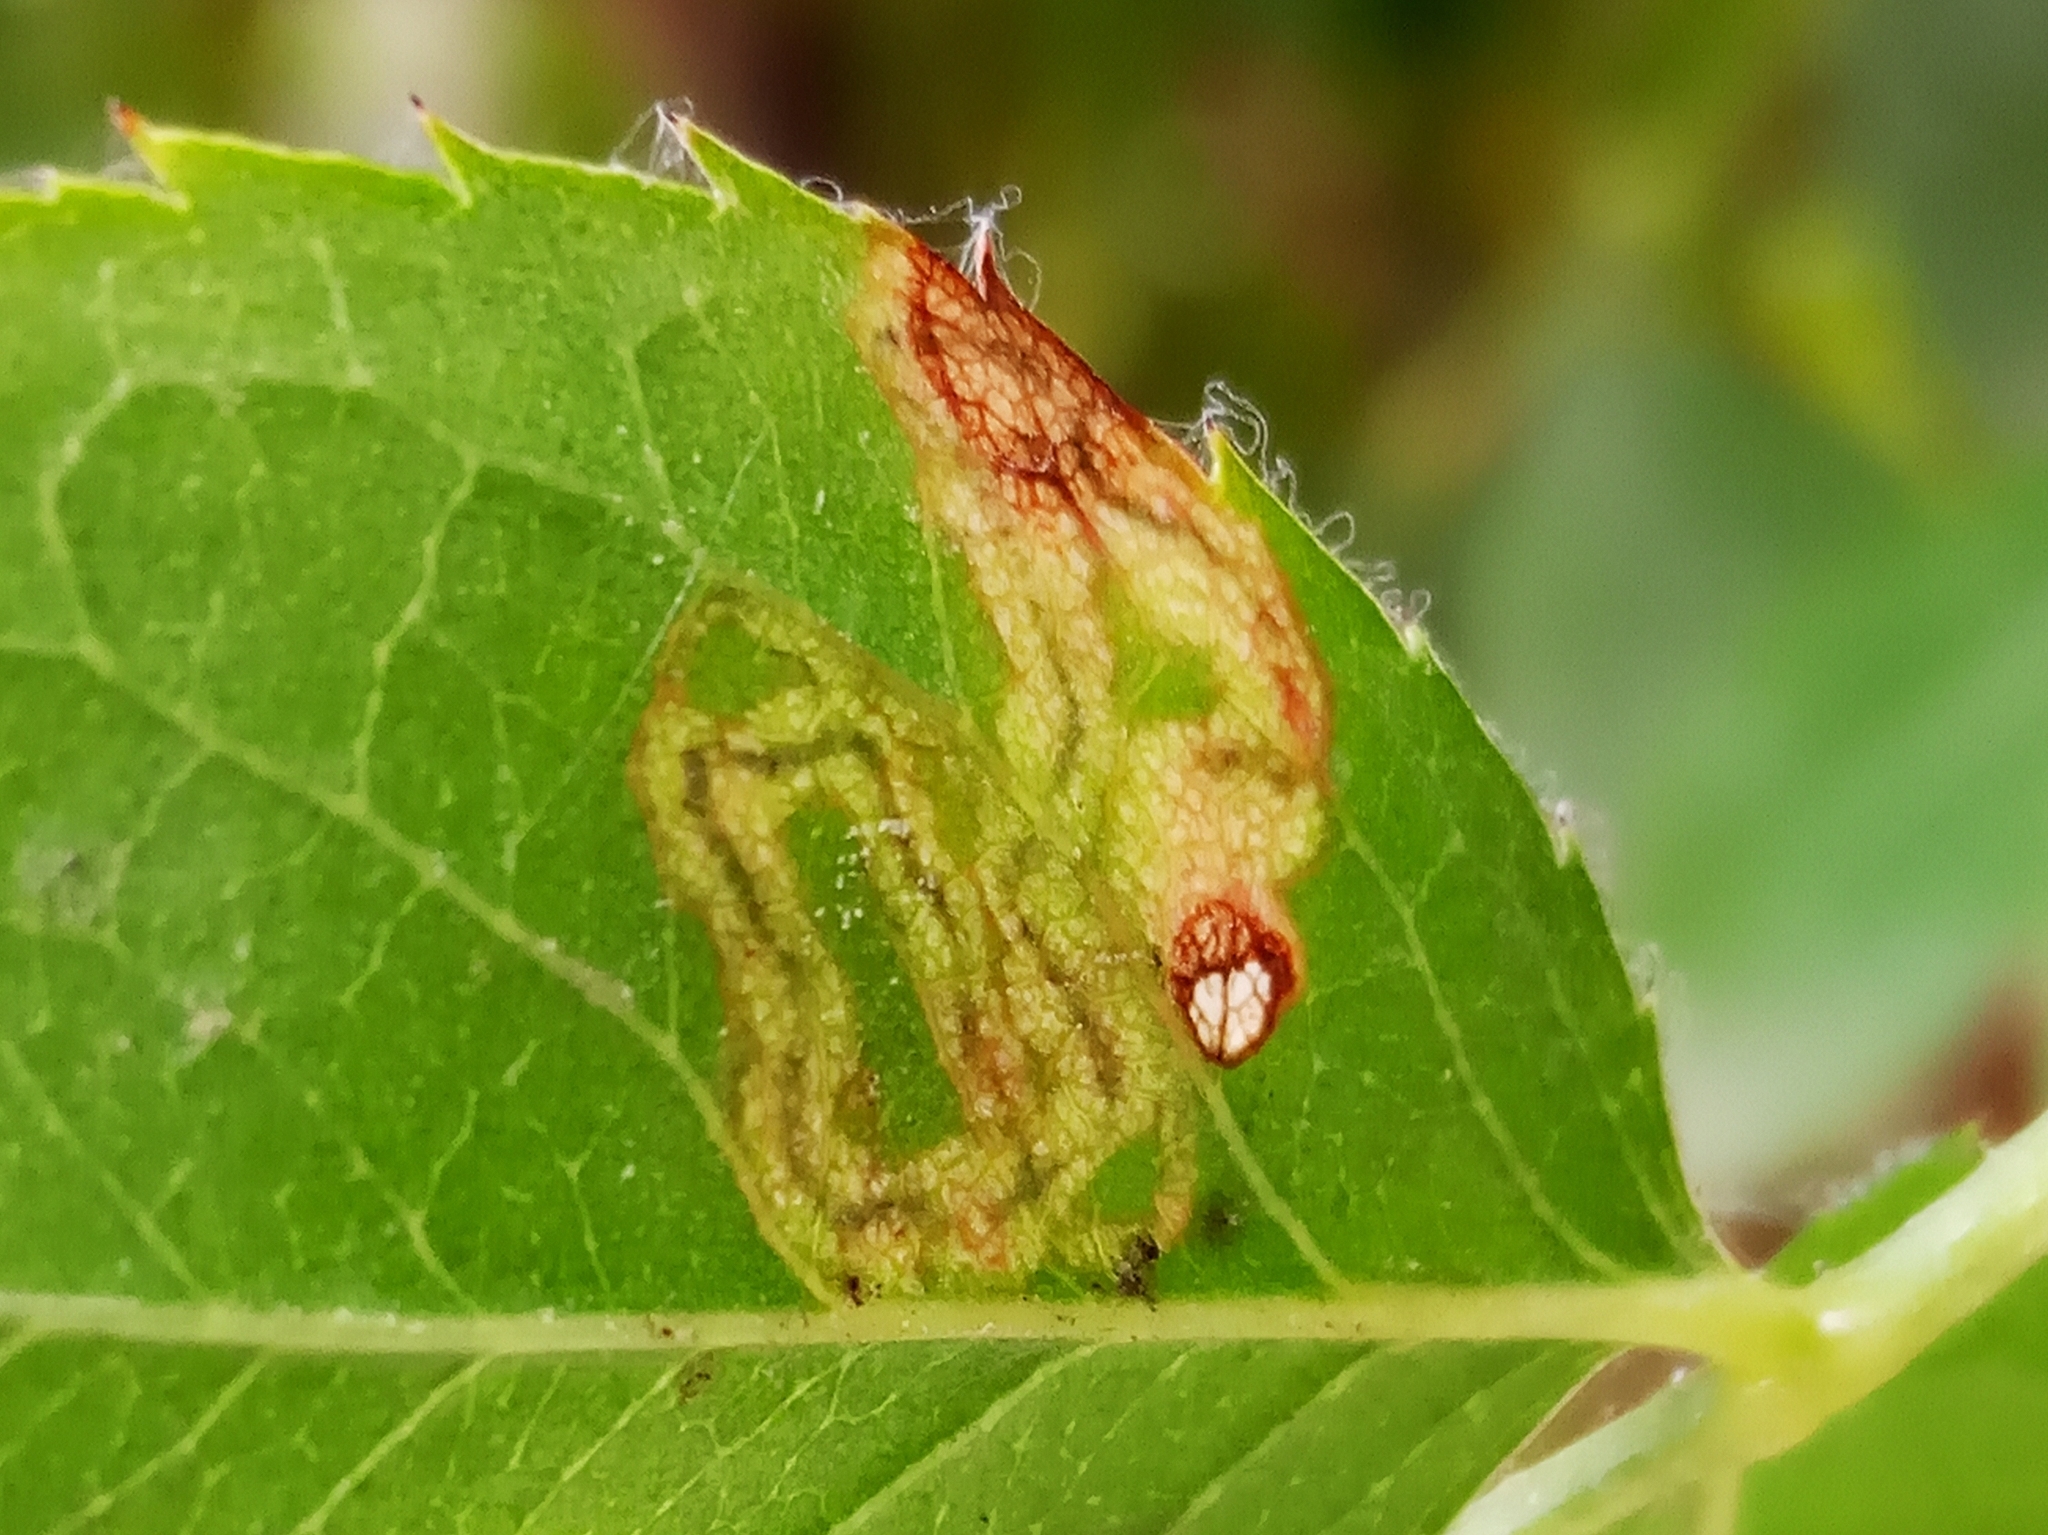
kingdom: Animalia
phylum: Arthropoda
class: Insecta
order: Lepidoptera
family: Nepticulidae
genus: Stigmella
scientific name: Stigmella
